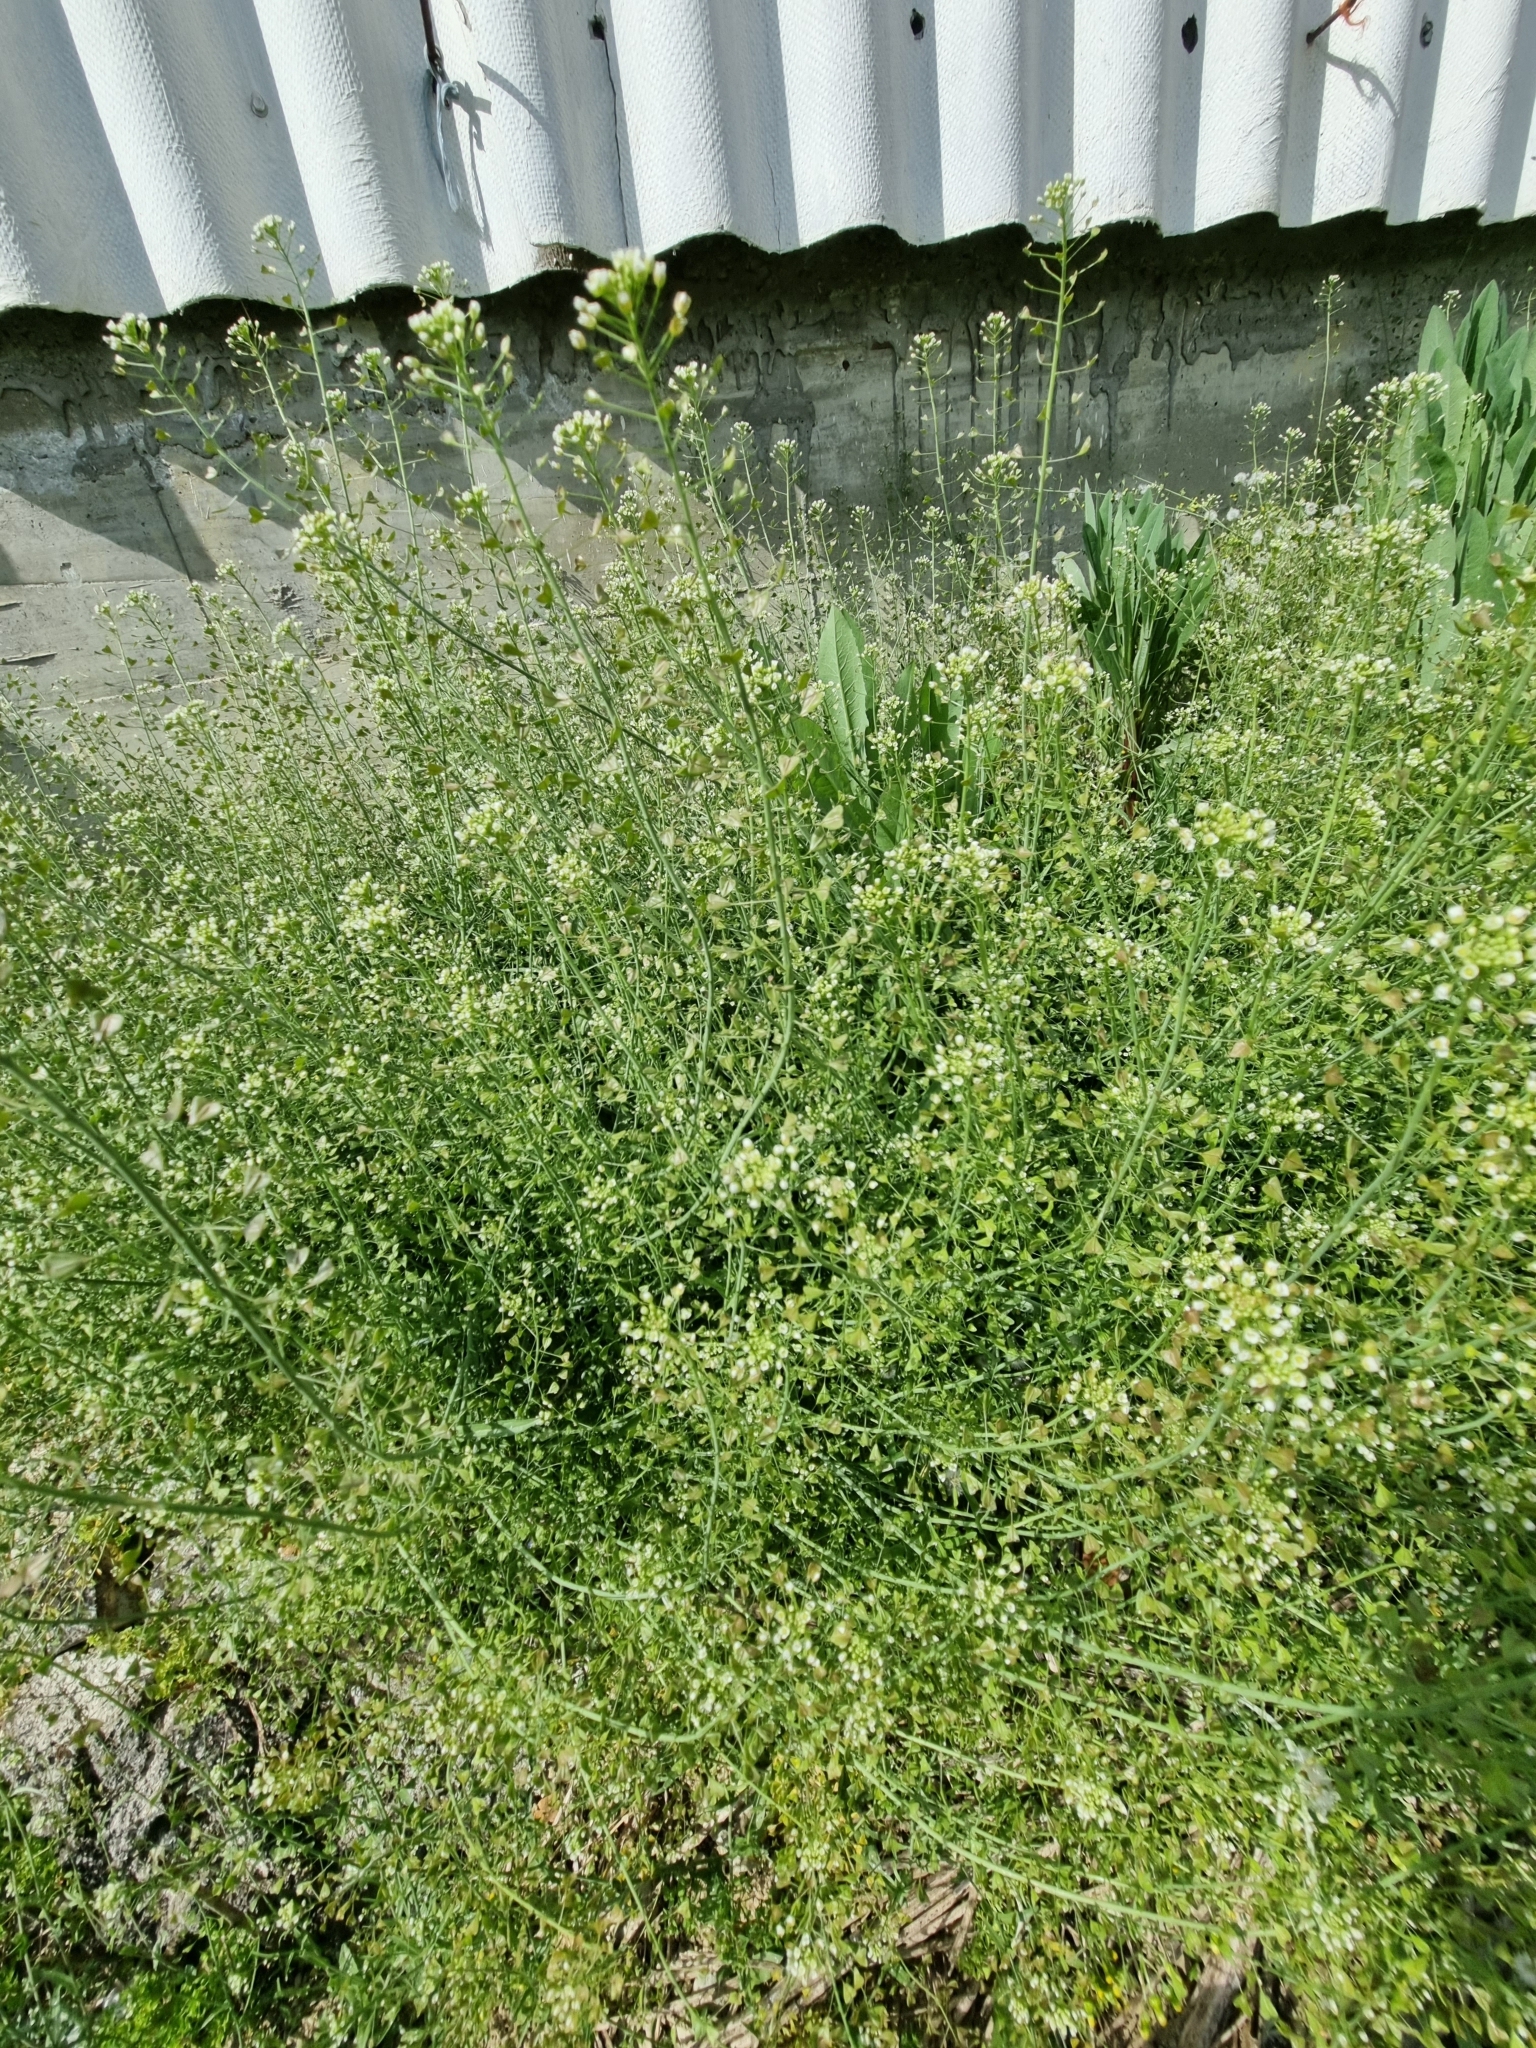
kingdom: Plantae
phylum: Tracheophyta
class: Magnoliopsida
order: Brassicales
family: Brassicaceae
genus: Capsella
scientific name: Capsella bursa-pastoris
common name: Shepherd's purse
